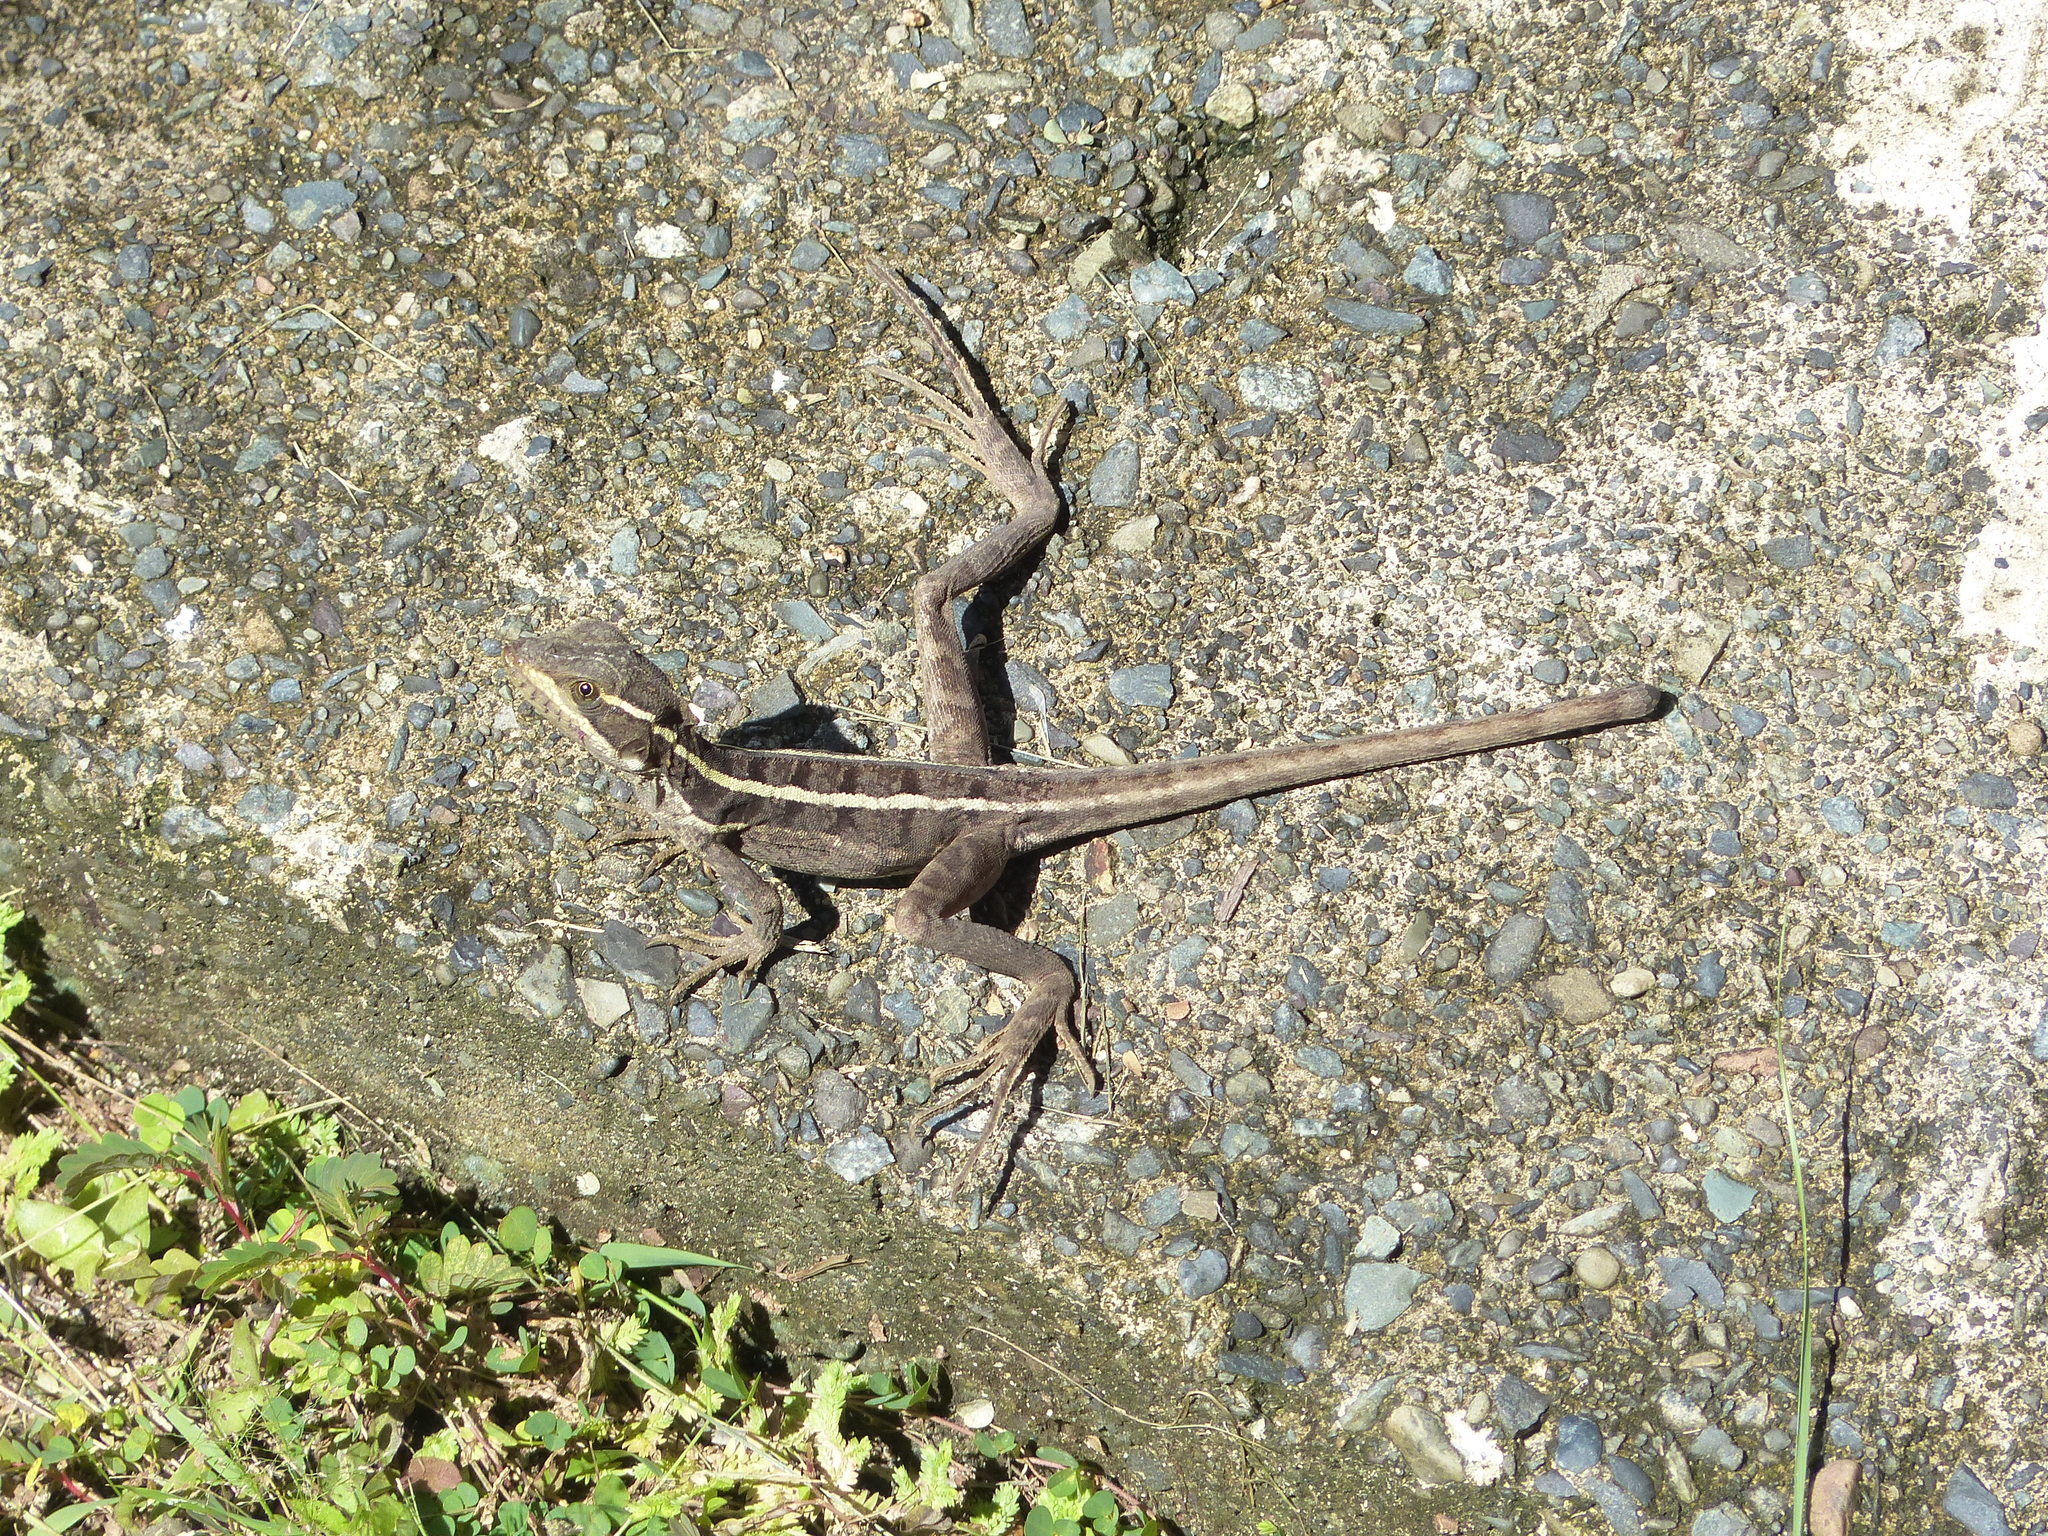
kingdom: Animalia
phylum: Chordata
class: Squamata
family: Corytophanidae
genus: Basiliscus
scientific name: Basiliscus vittatus
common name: Brown basilisk
